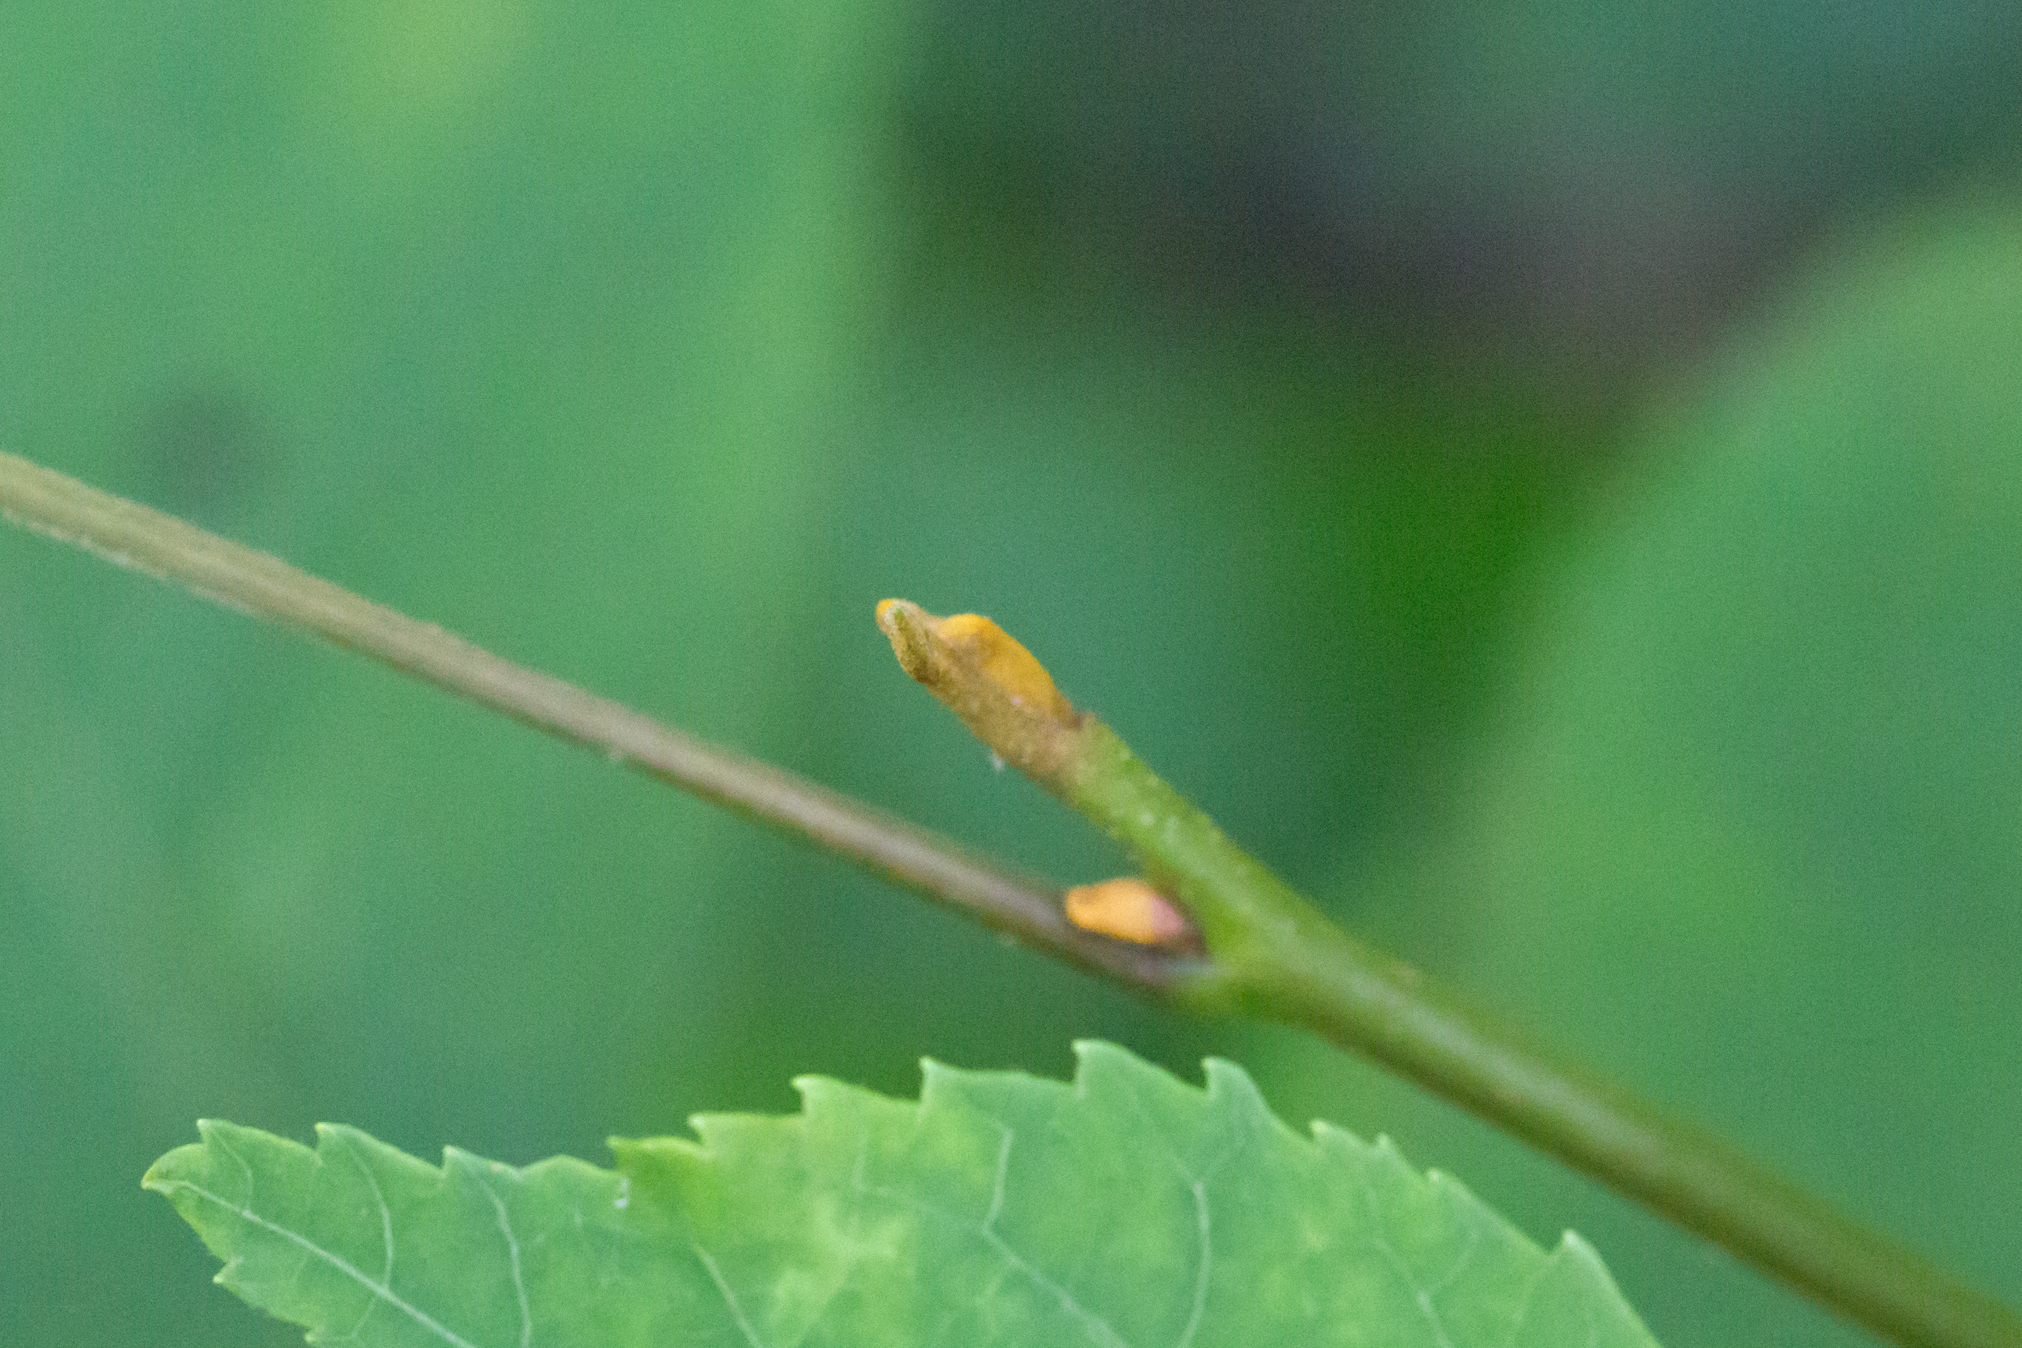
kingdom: Plantae
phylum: Tracheophyta
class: Magnoliopsida
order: Fagales
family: Juglandaceae
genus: Carya
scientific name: Carya cordiformis
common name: Bitternut hickory
